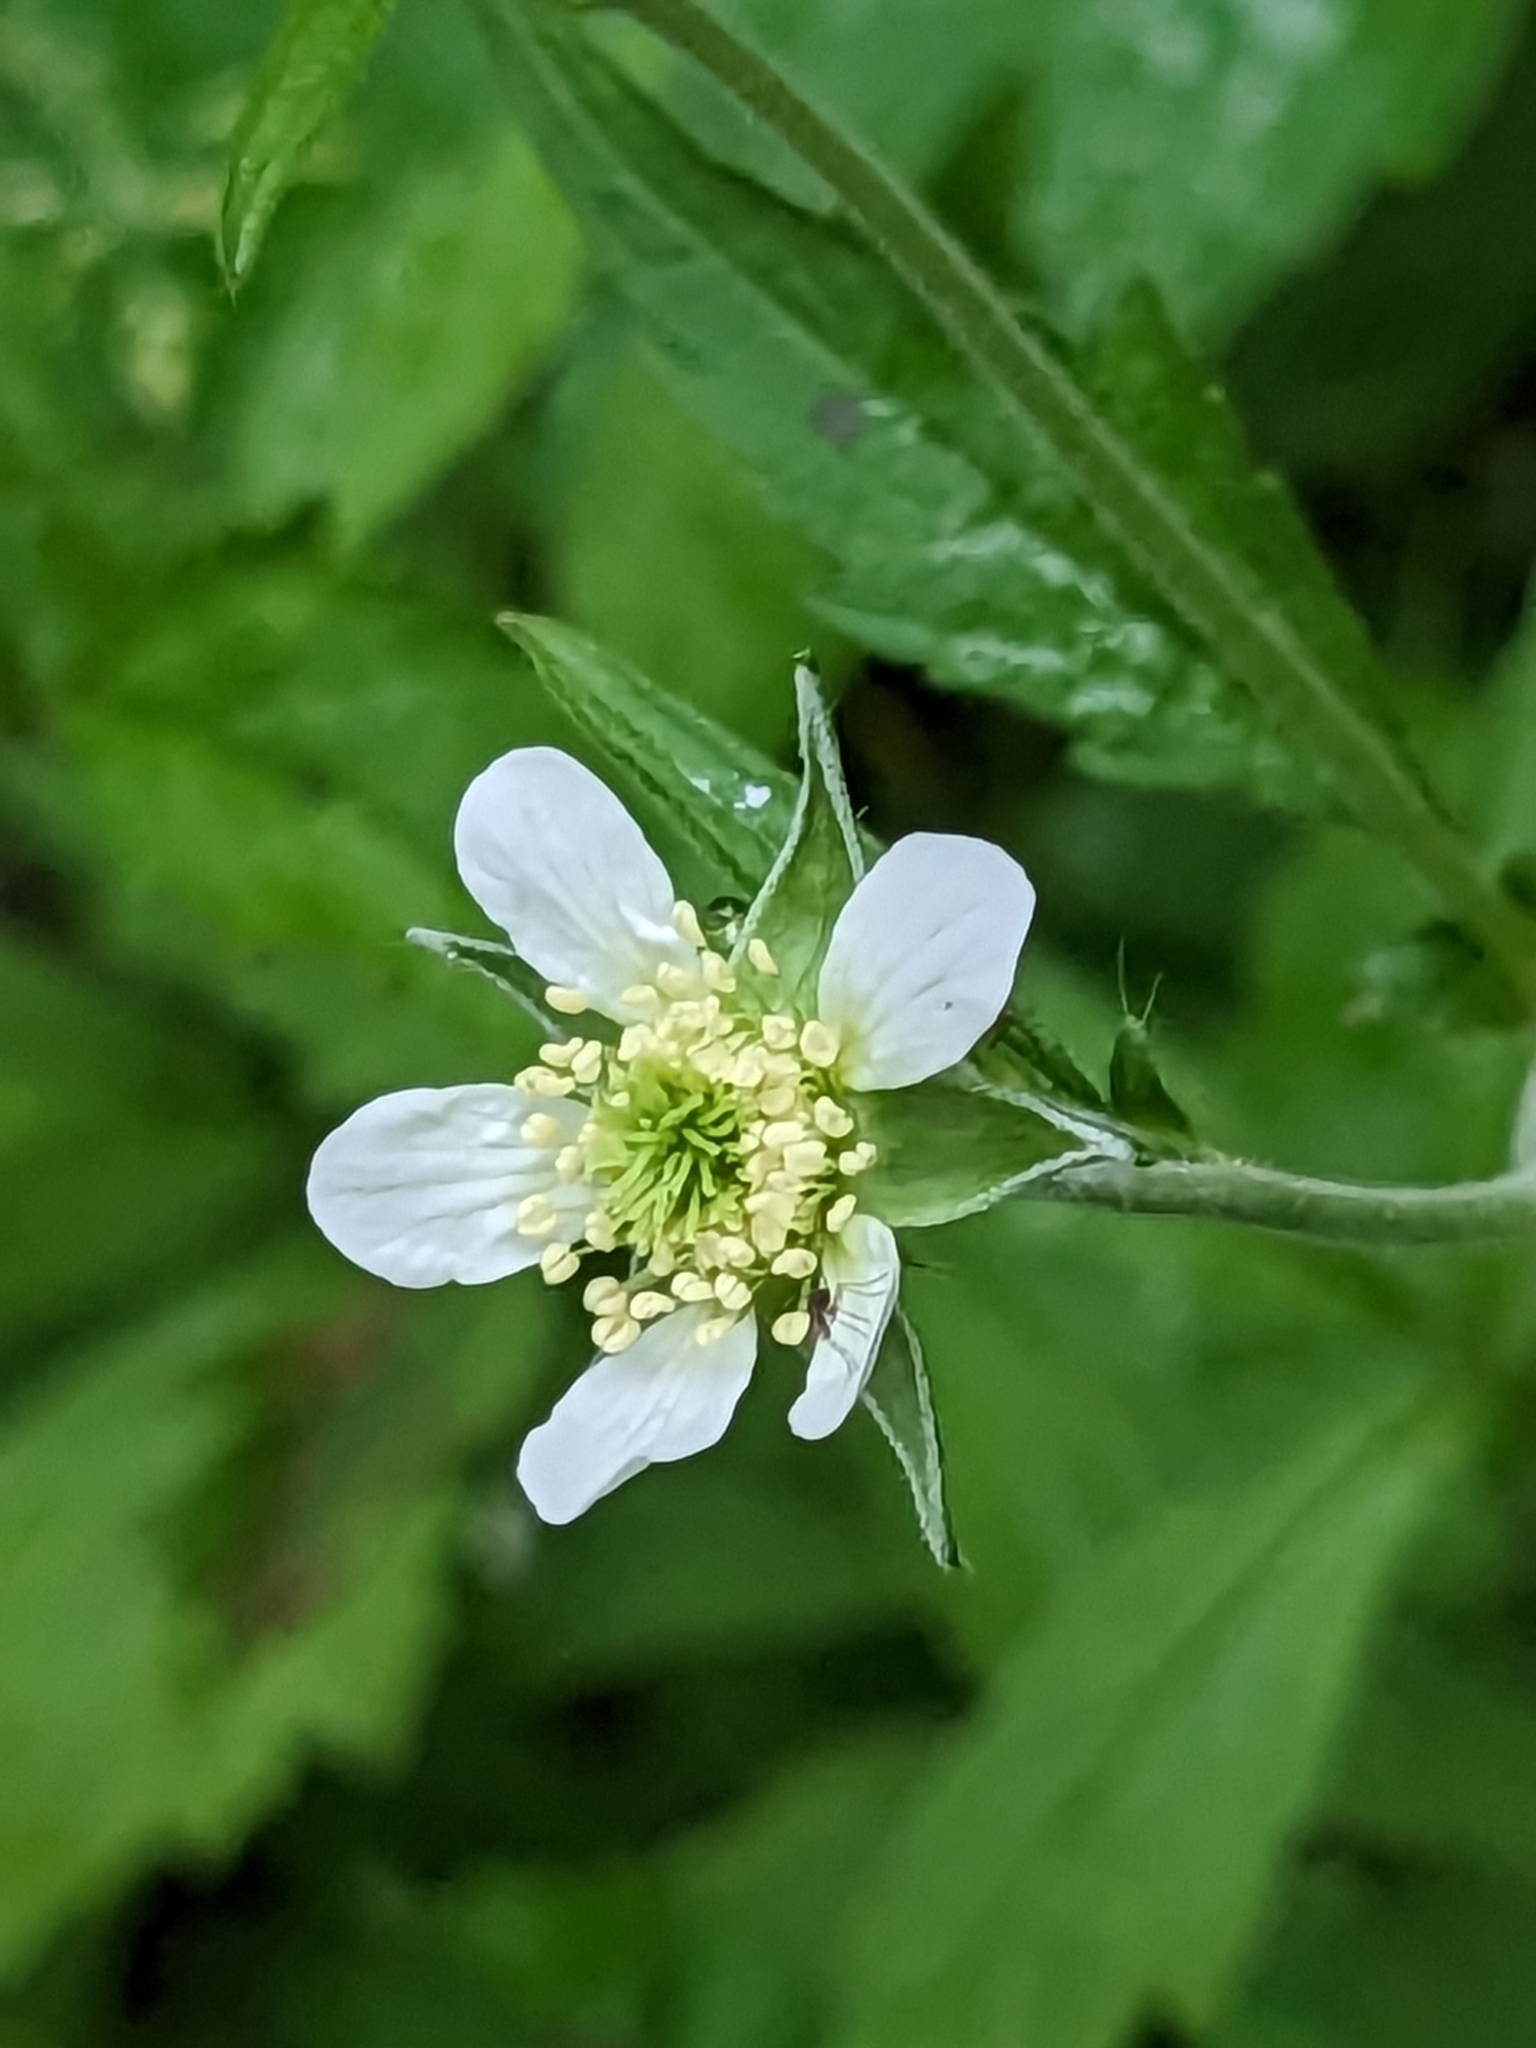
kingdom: Plantae
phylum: Tracheophyta
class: Magnoliopsida
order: Rosales
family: Rosaceae
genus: Geum
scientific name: Geum canadense
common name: White avens
